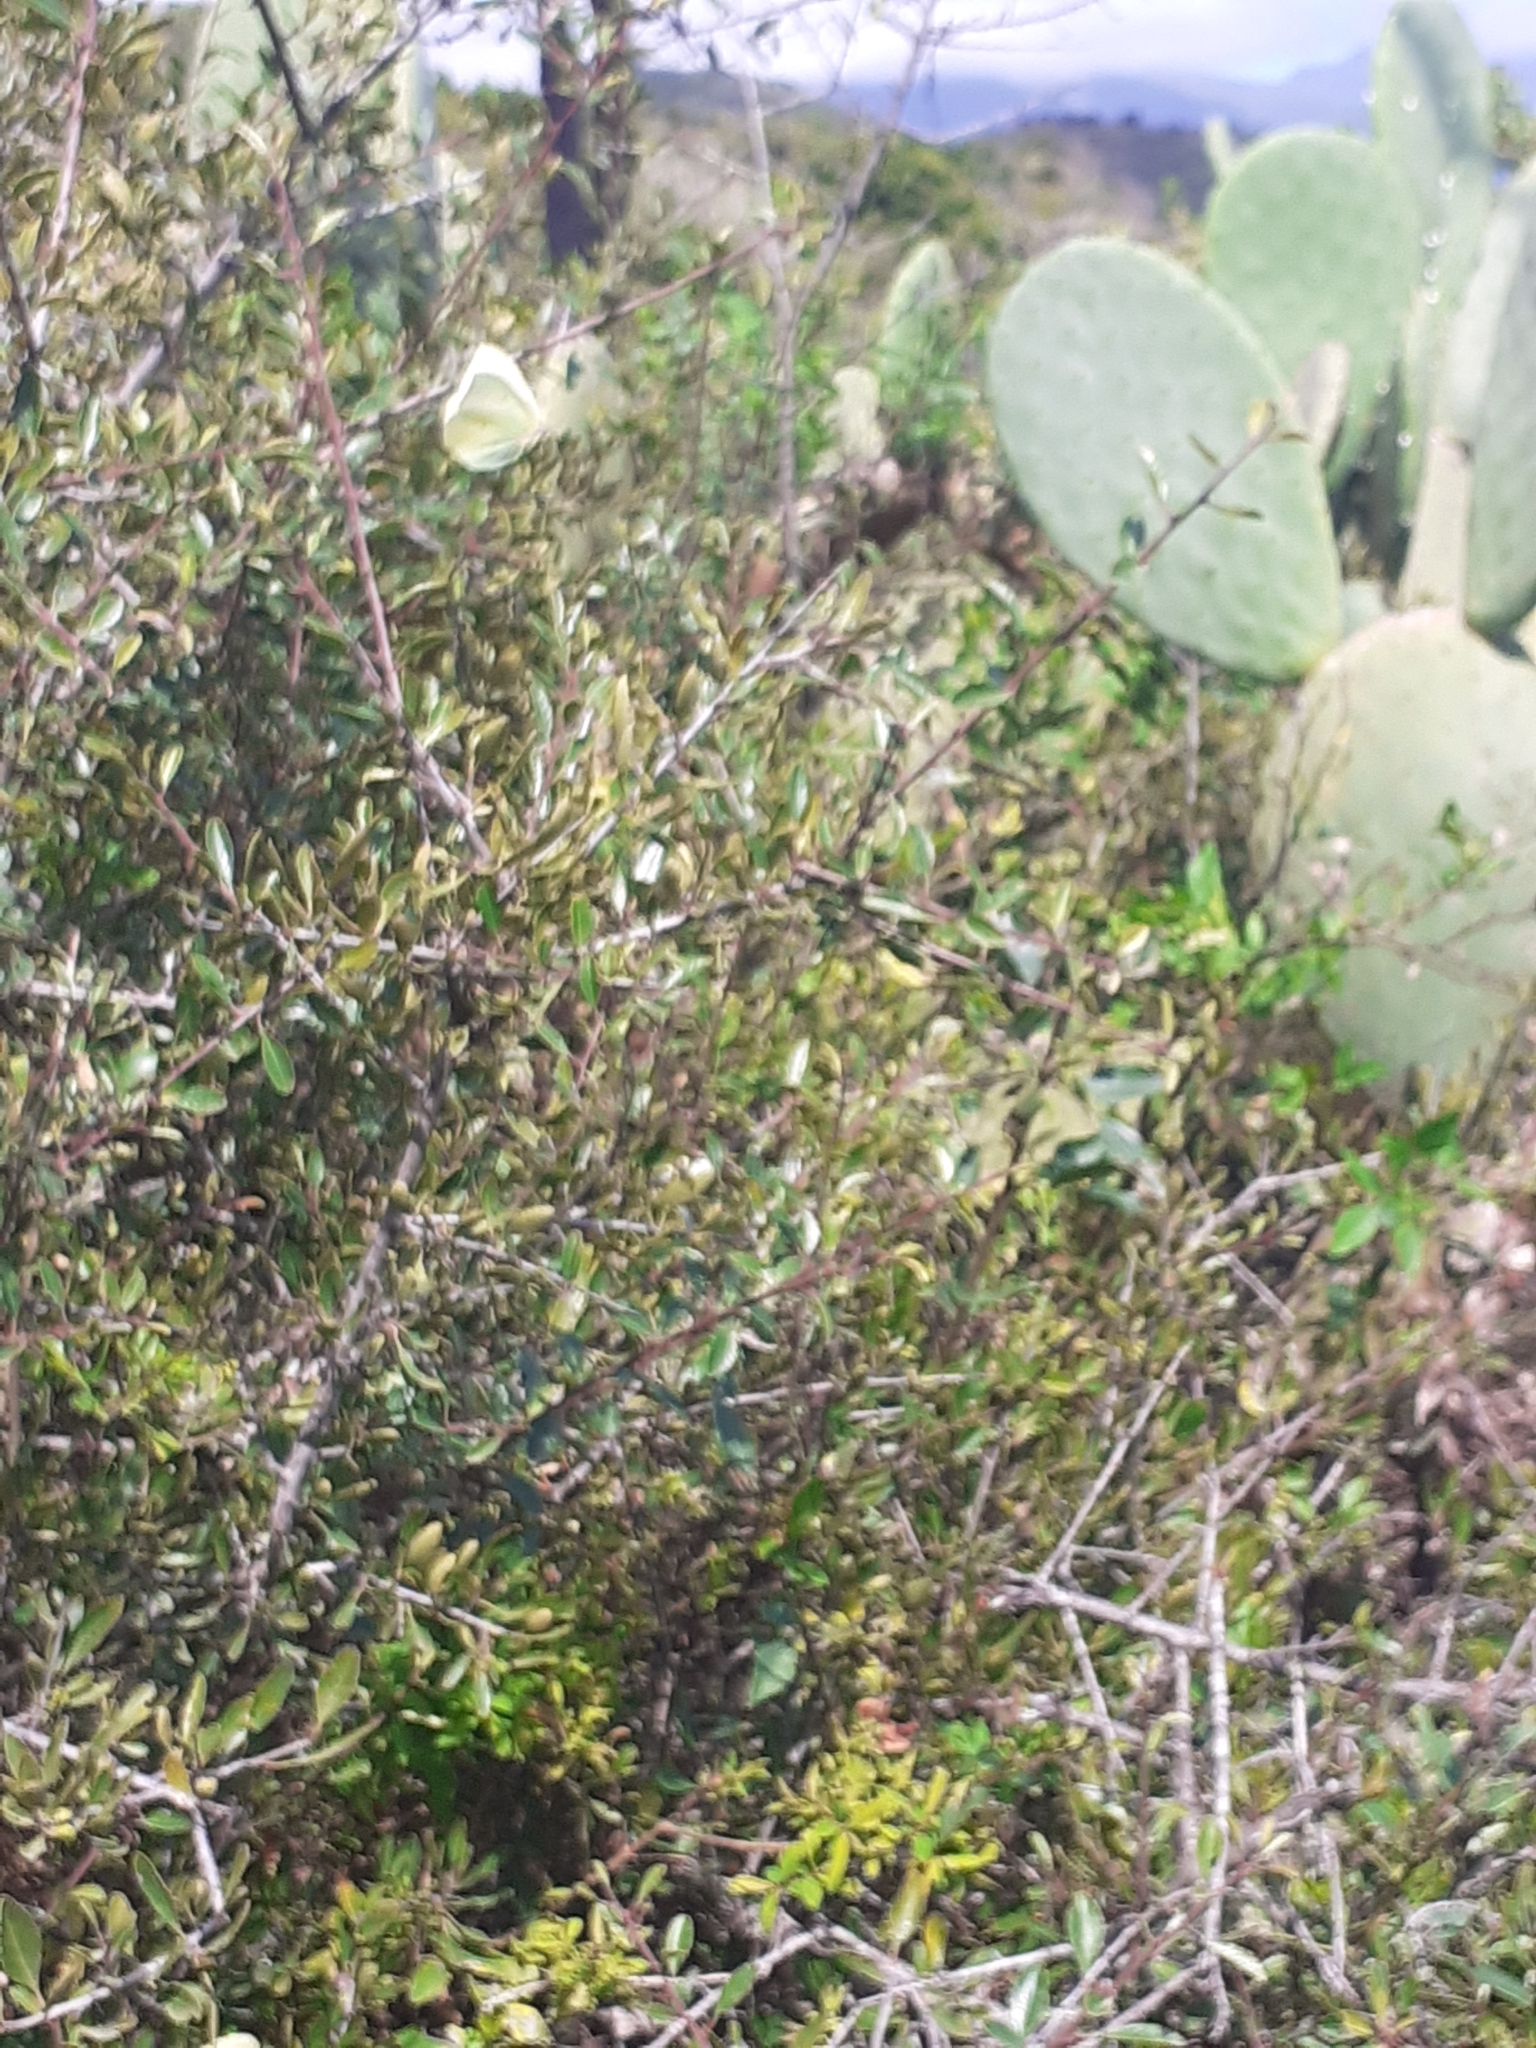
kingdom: Animalia
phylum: Arthropoda
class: Insecta
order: Lepidoptera
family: Pieridae
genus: Gonepteryx
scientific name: Gonepteryx cleobule
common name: Canary brimstone
